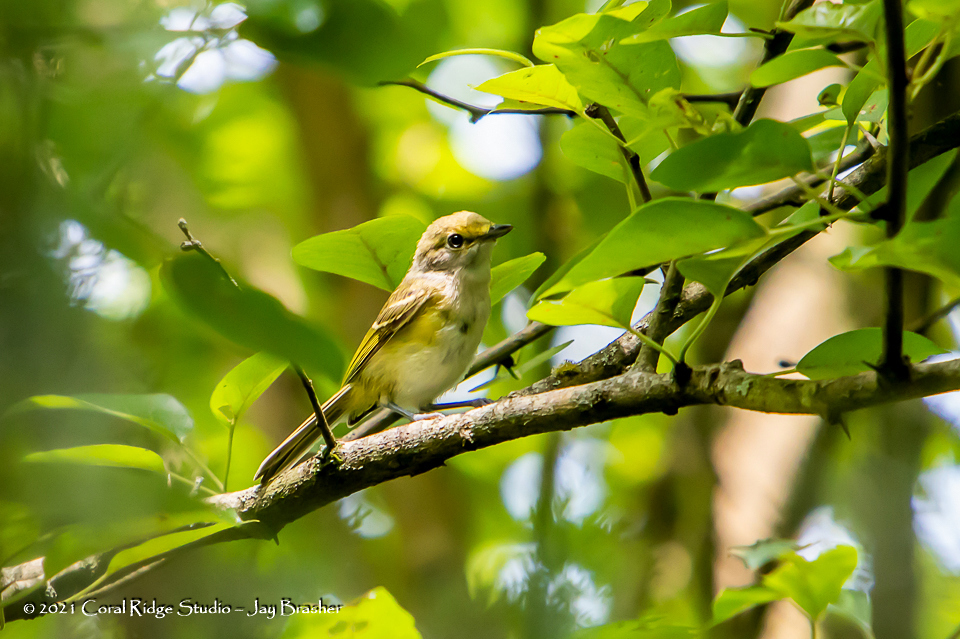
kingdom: Animalia
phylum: Chordata
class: Aves
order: Passeriformes
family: Vireonidae
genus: Vireo
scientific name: Vireo griseus
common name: White-eyed vireo
